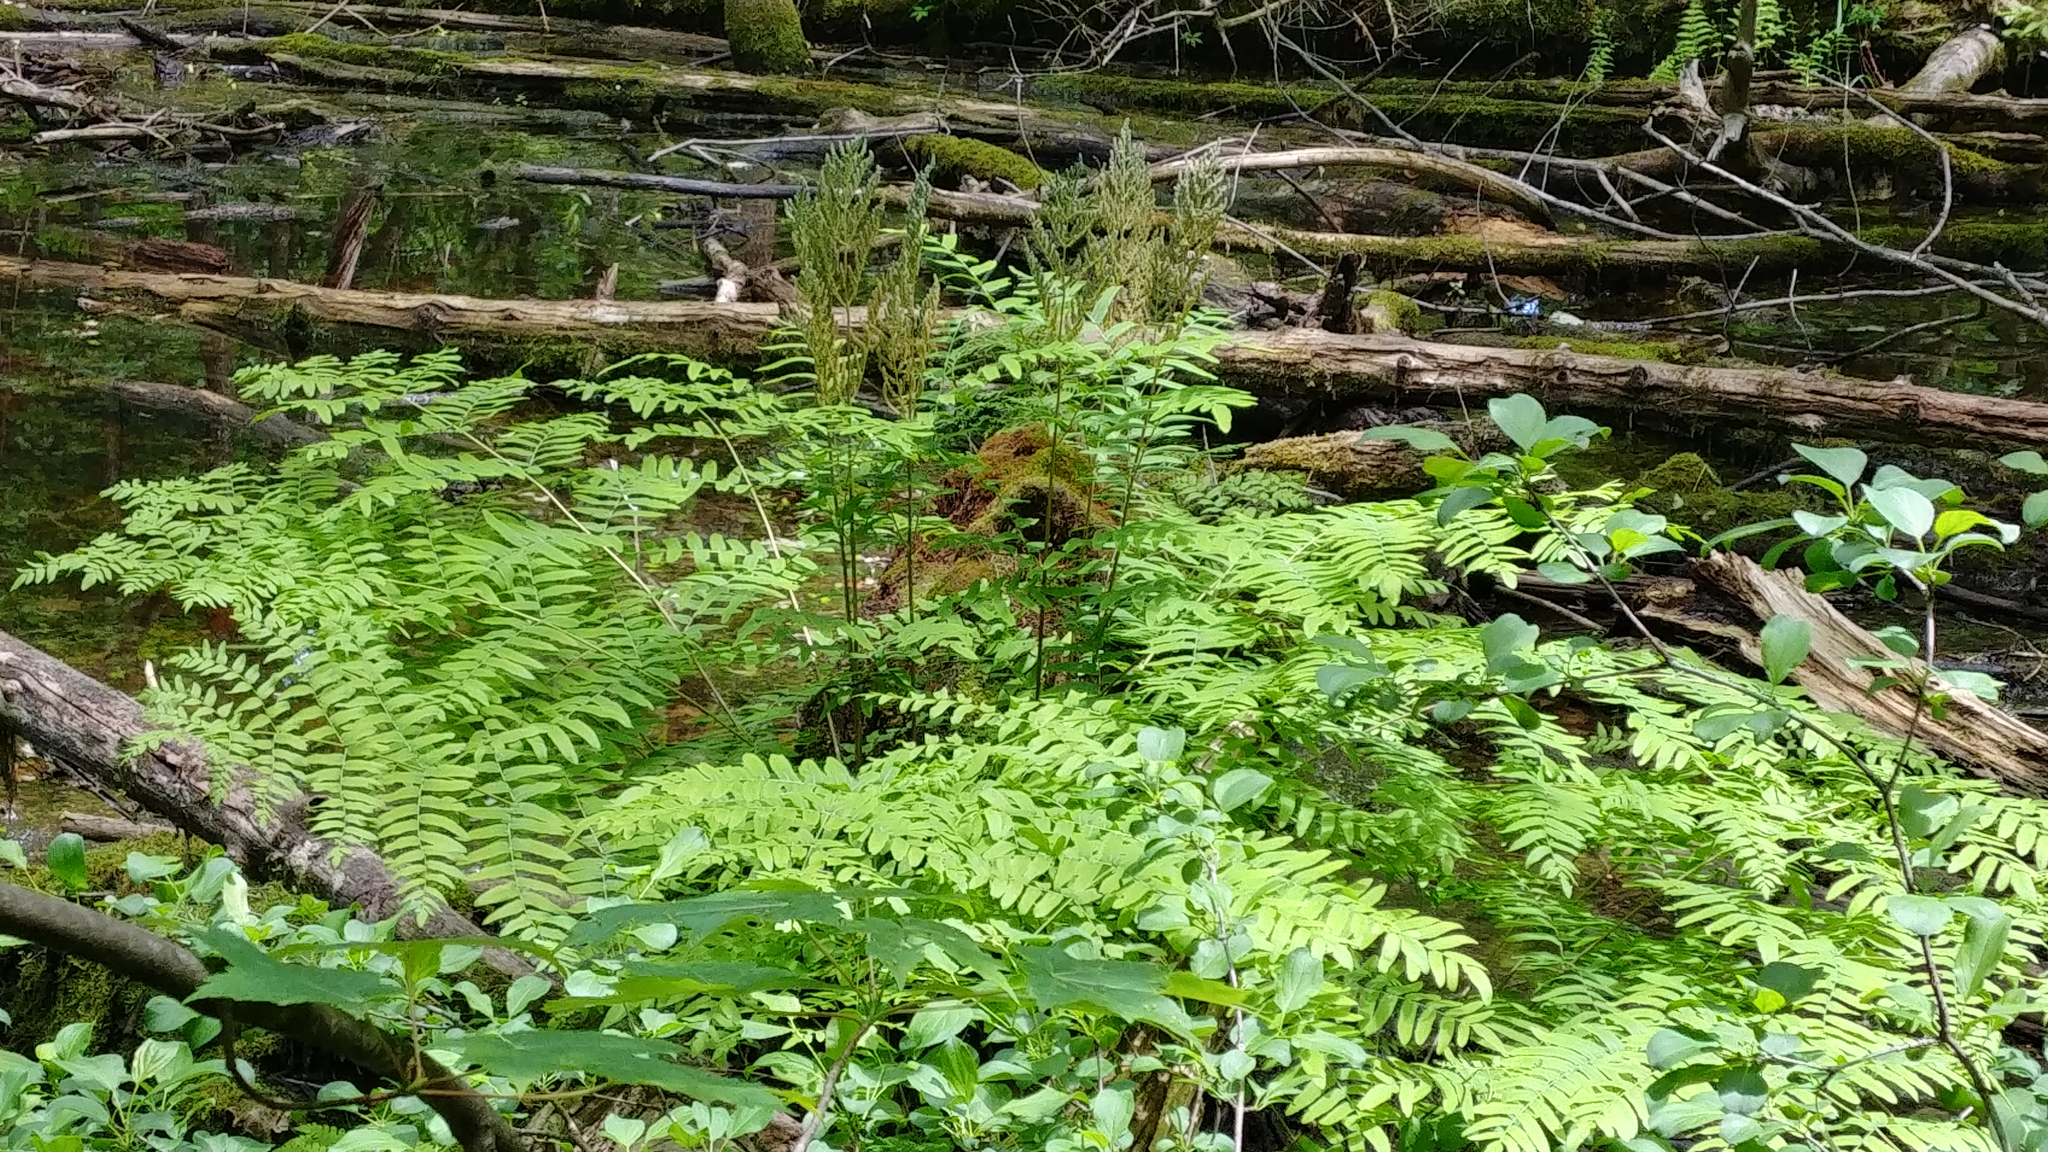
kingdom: Plantae
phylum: Tracheophyta
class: Polypodiopsida
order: Osmundales
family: Osmundaceae
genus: Osmunda
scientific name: Osmunda spectabilis
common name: American royal fern
